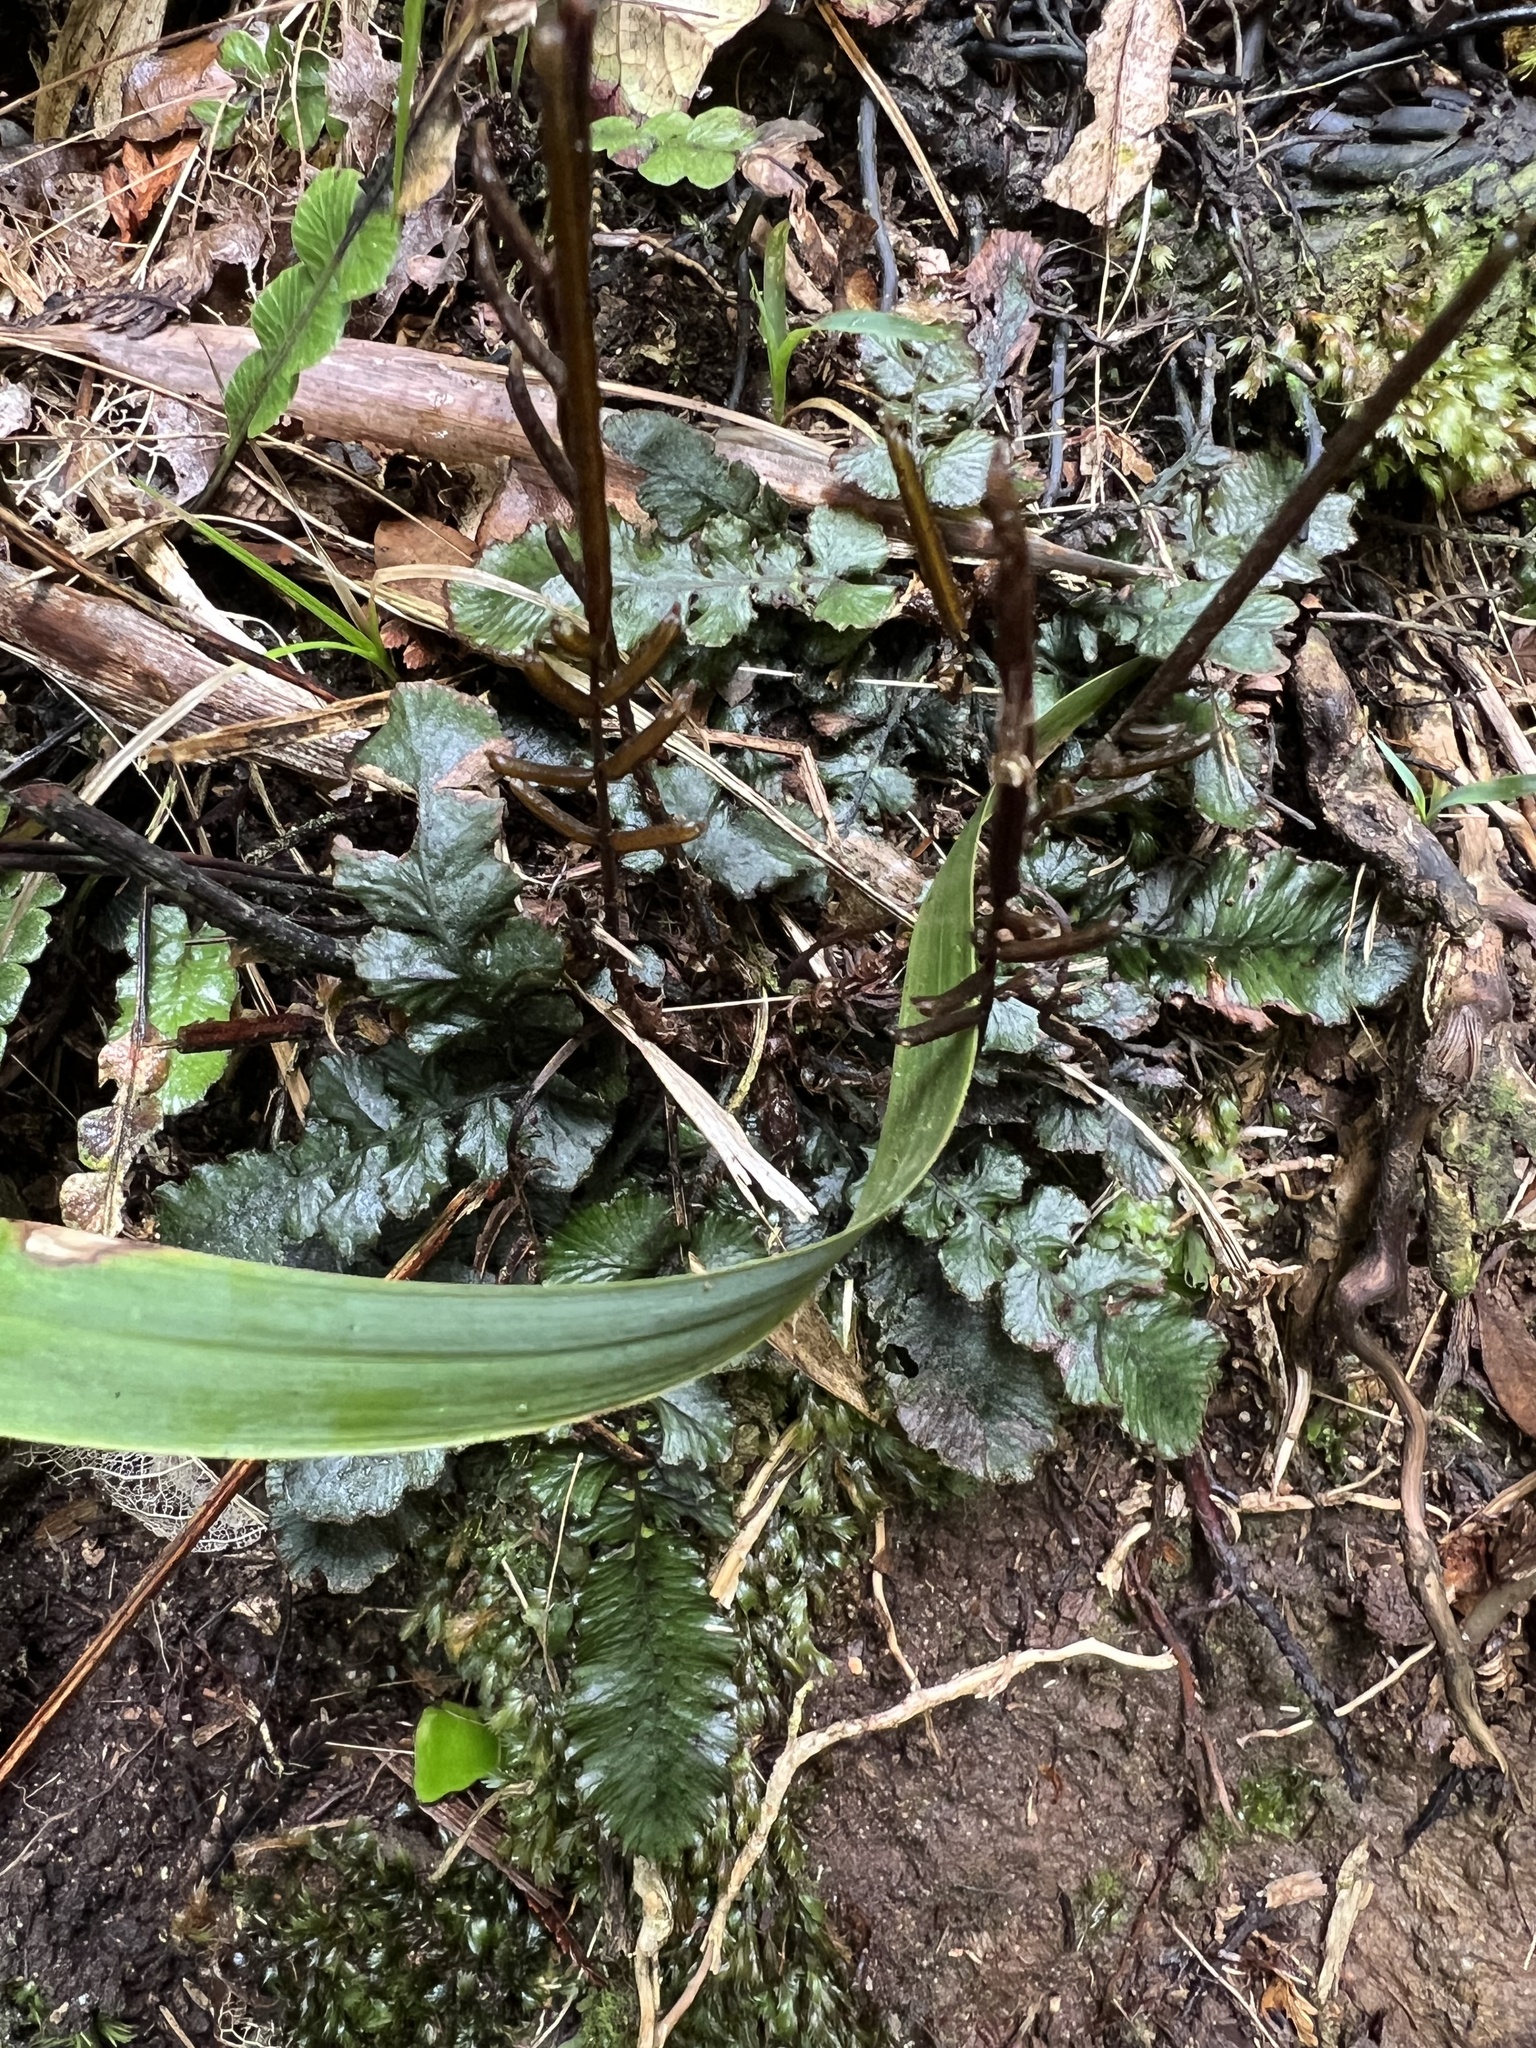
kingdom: Plantae
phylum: Tracheophyta
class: Polypodiopsida
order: Polypodiales
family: Blechnaceae
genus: Cranfillia
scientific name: Cranfillia nigra
